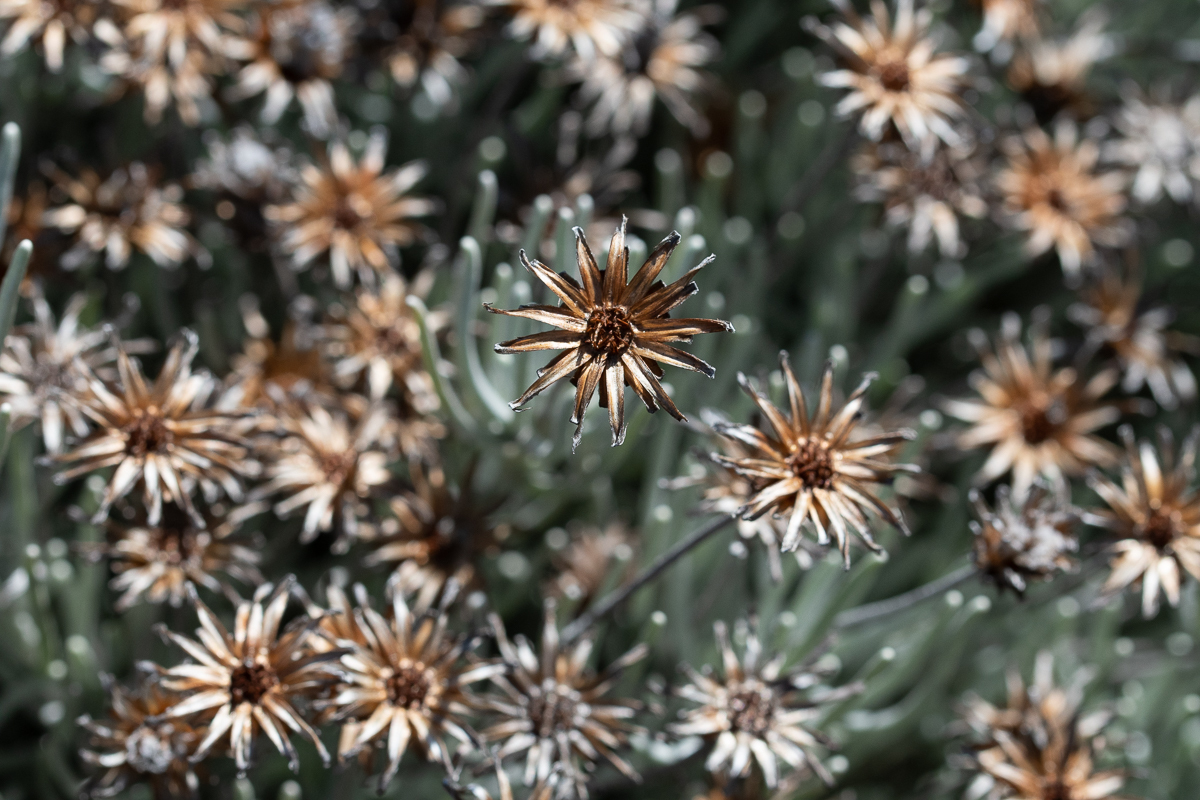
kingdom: Plantae
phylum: Tracheophyta
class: Magnoliopsida
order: Asterales
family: Asteraceae
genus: Syncarpha
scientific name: Syncarpha gnaphaloides
